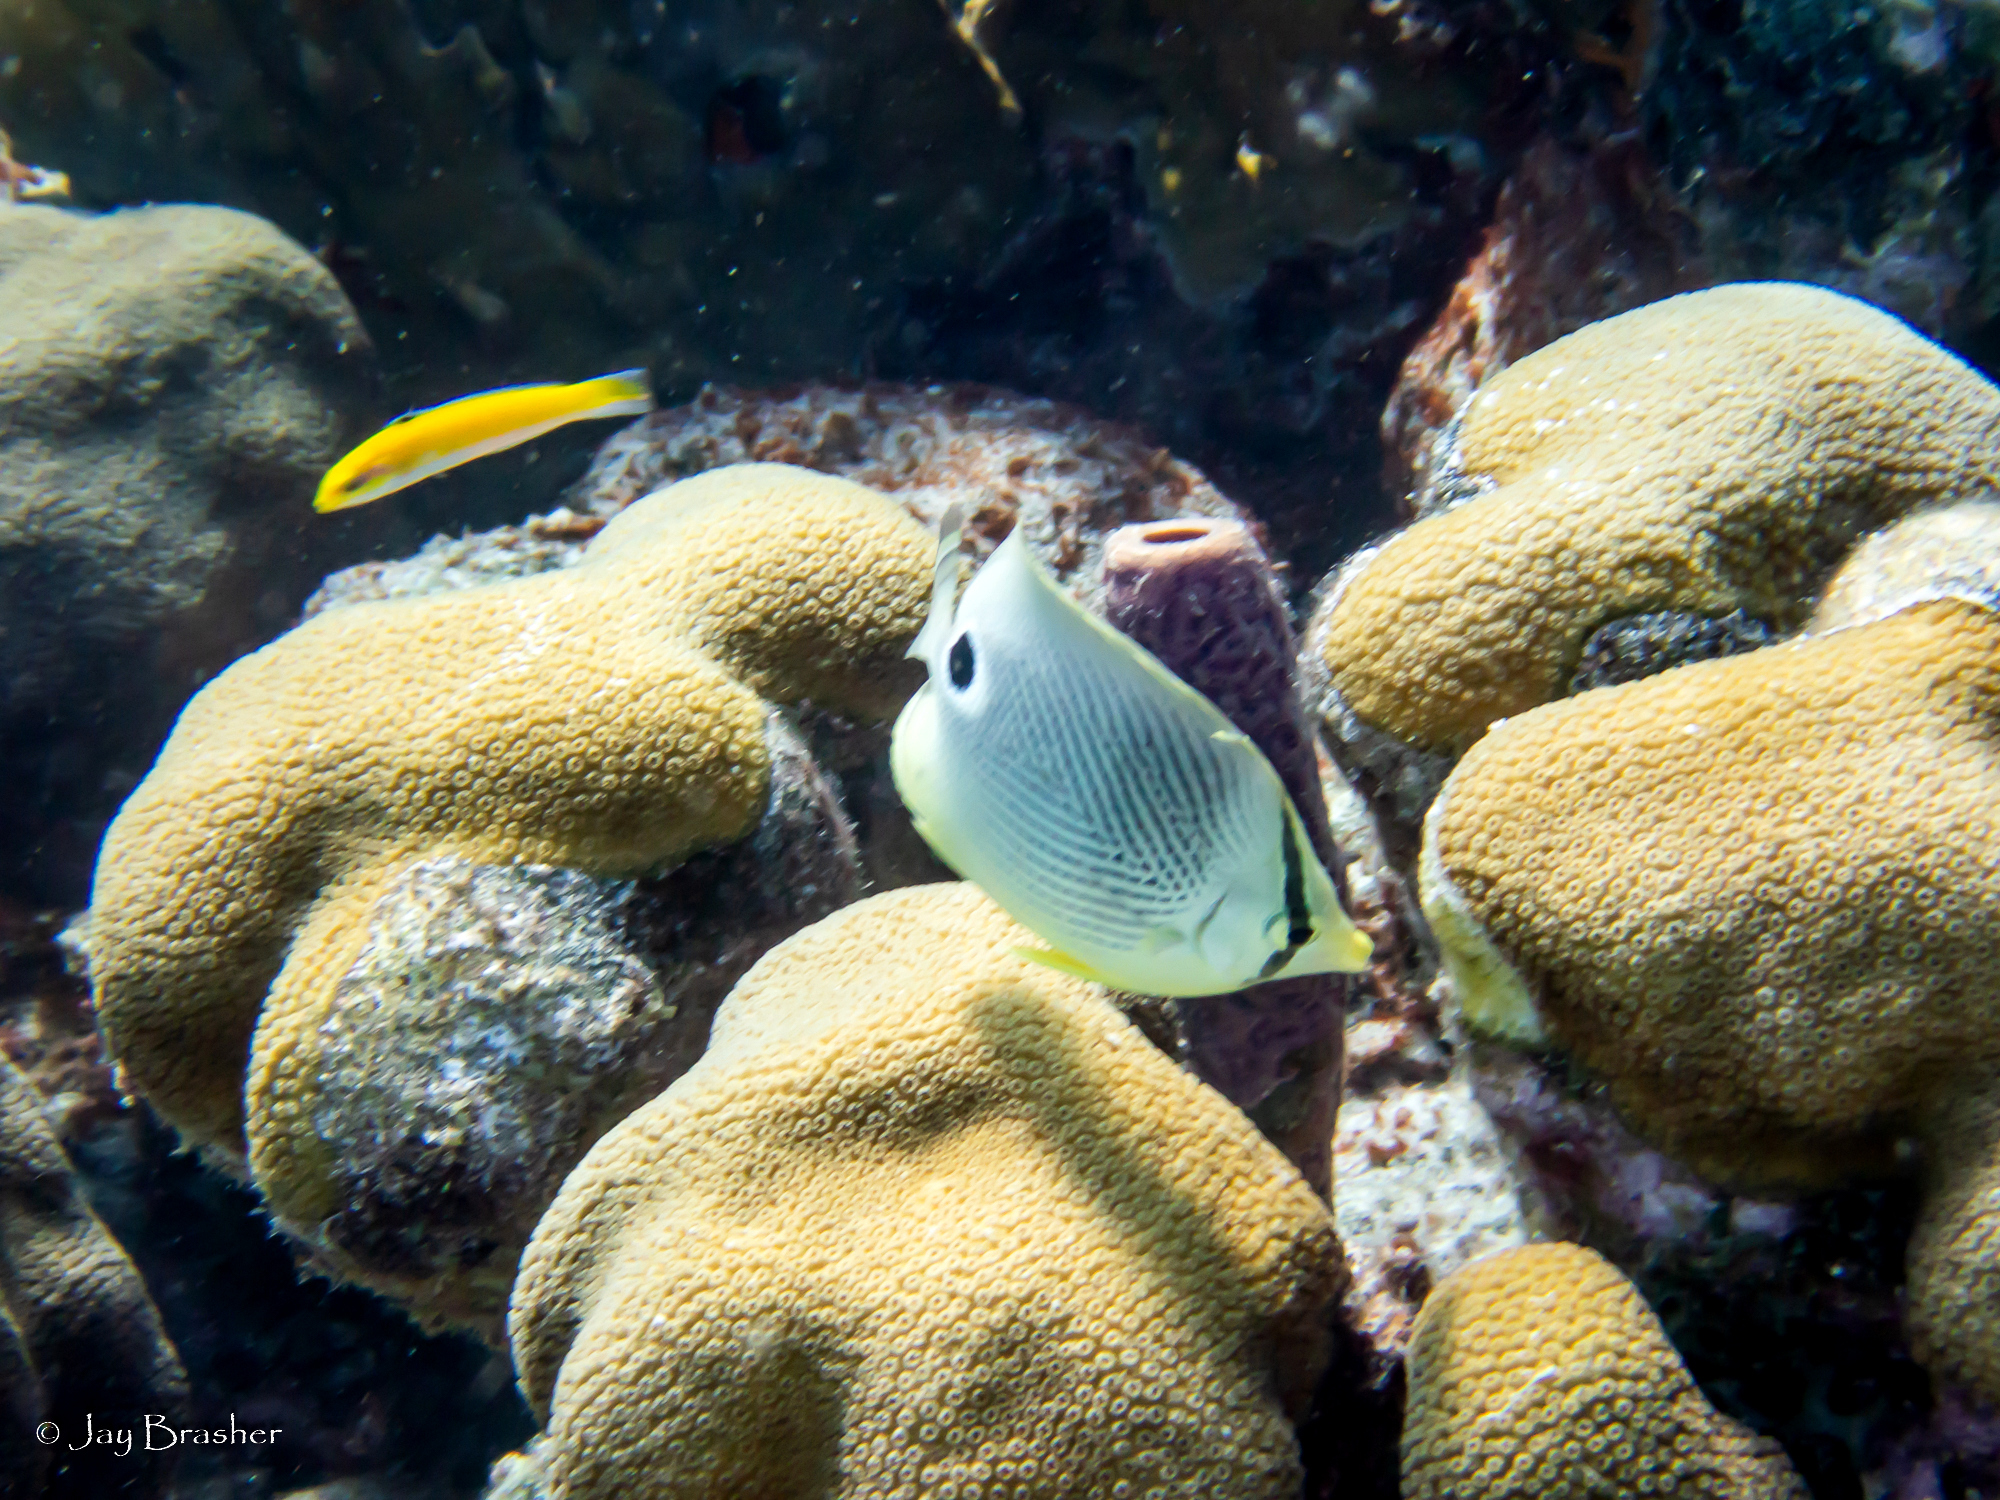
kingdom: Animalia
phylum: Chordata
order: Perciformes
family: Labridae
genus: Thalassoma
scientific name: Thalassoma bifasciatum
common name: Bluehead wrasse
